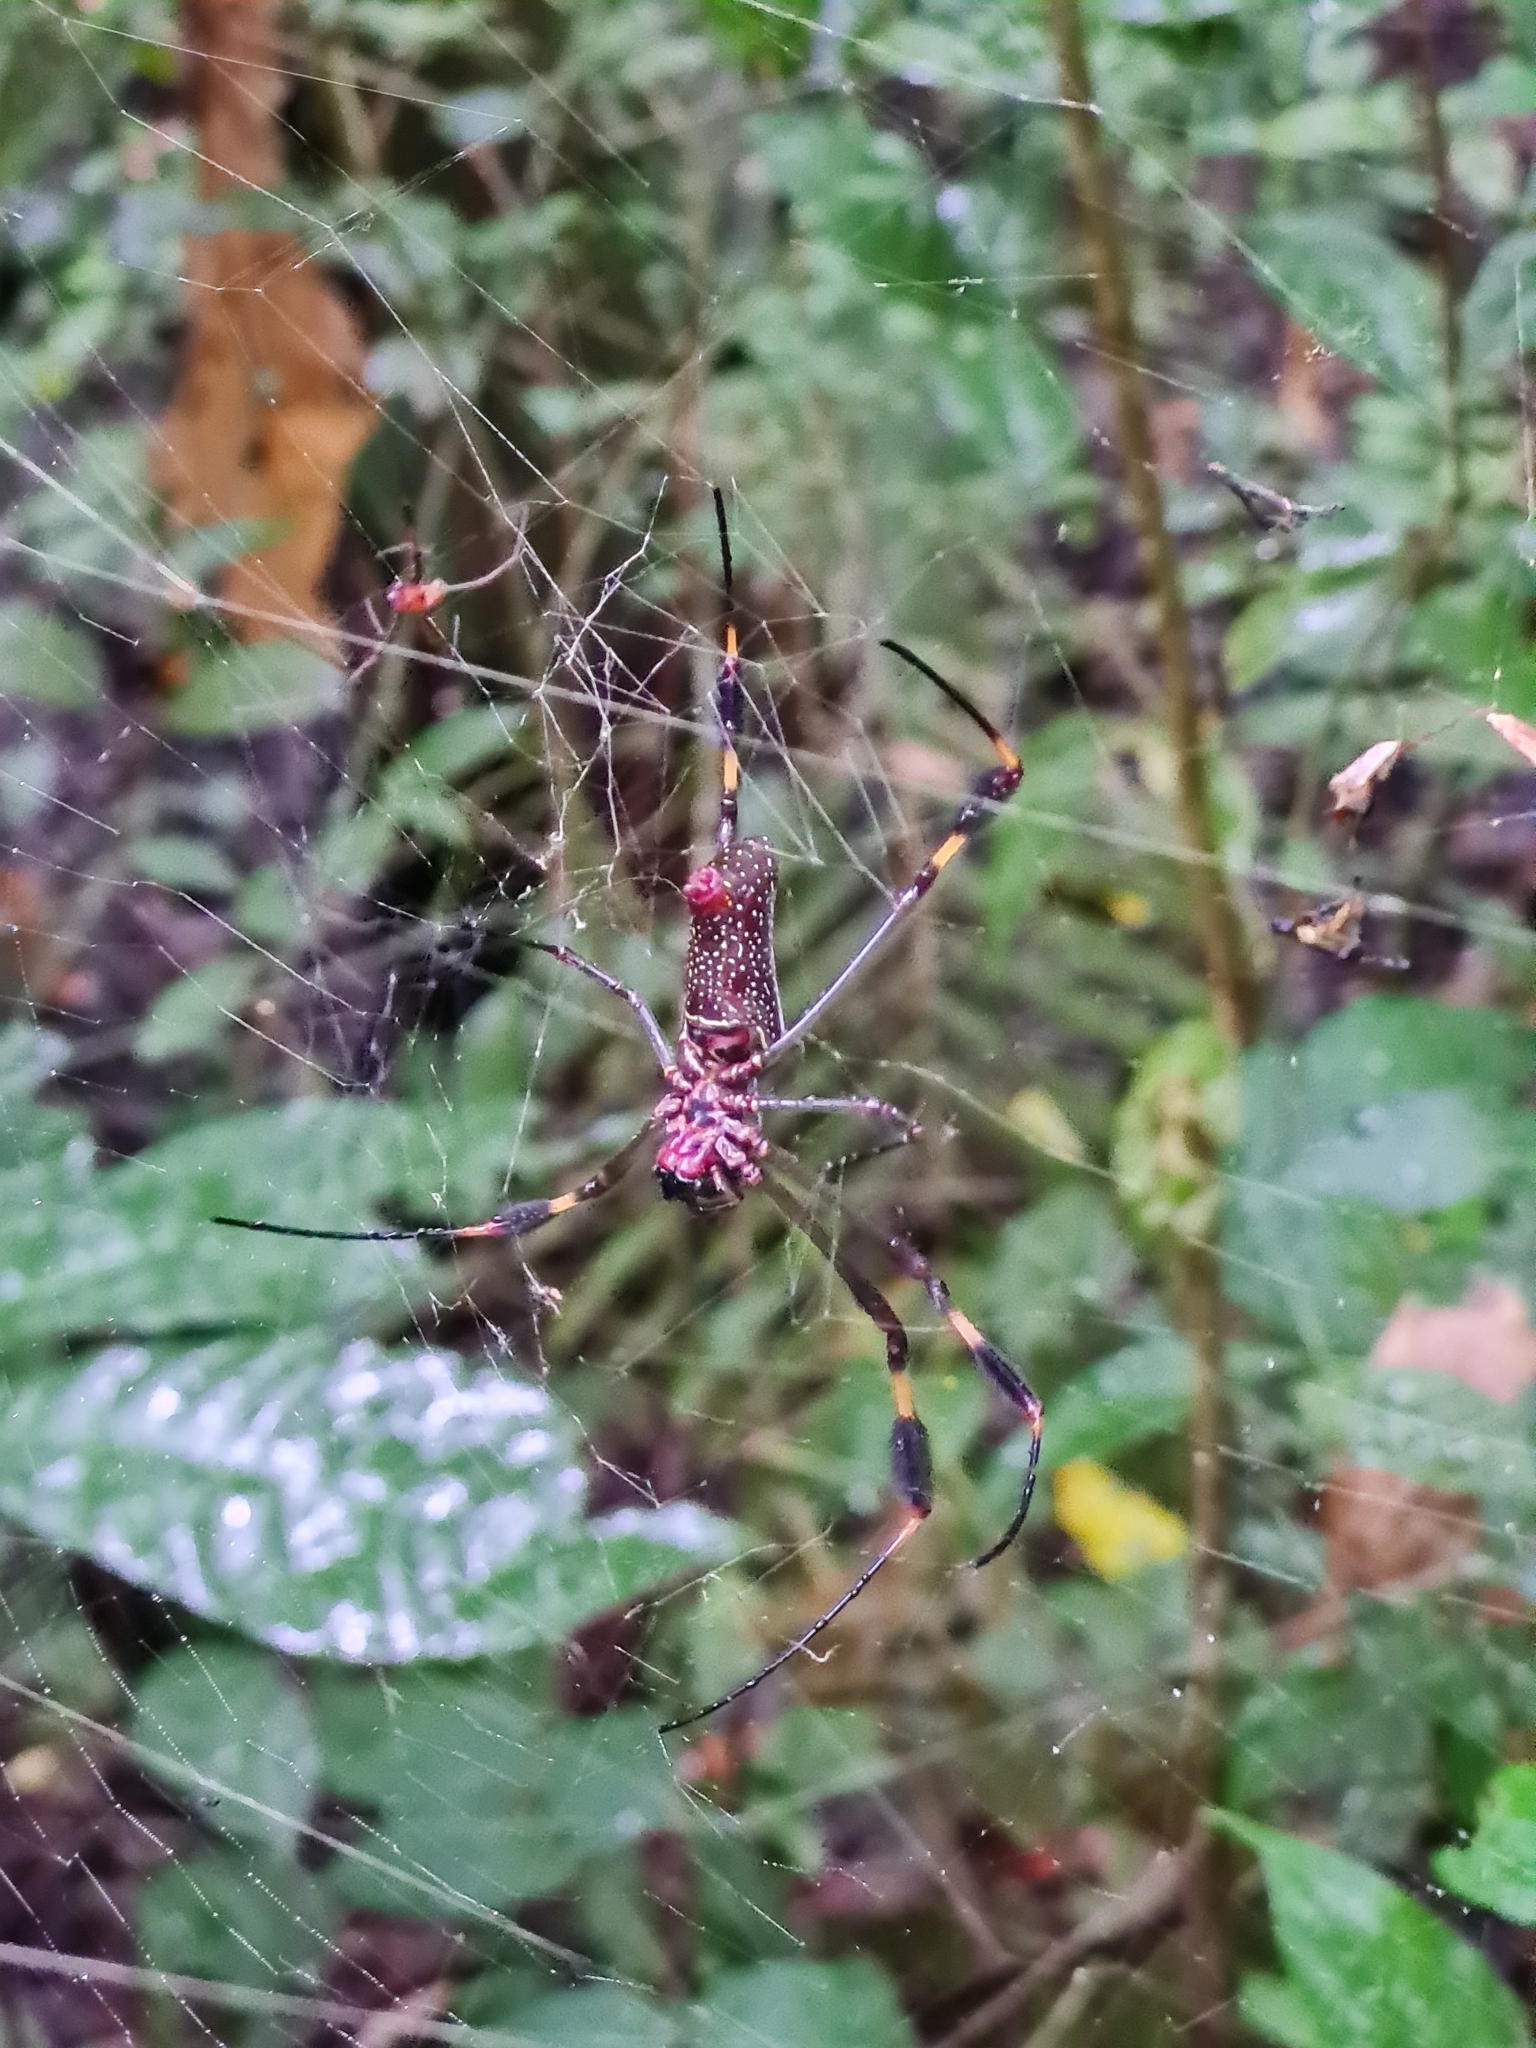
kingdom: Animalia
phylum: Arthropoda
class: Arachnida
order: Araneae
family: Araneidae
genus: Trichonephila
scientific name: Trichonephila clavipes
